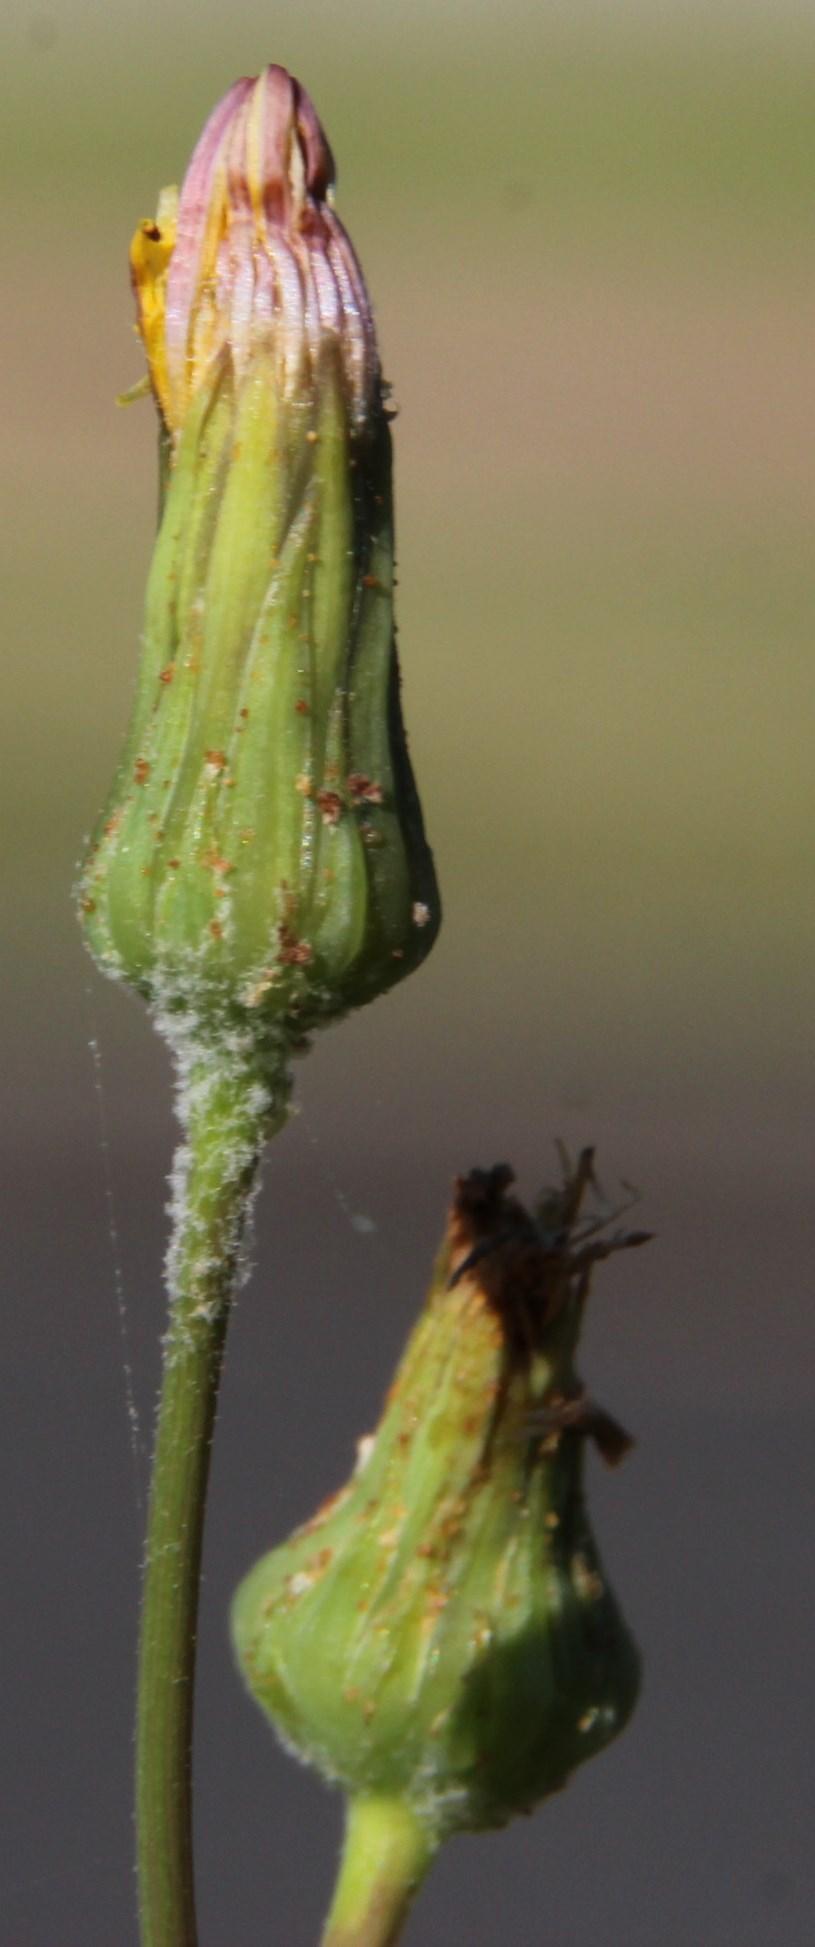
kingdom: Plantae
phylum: Tracheophyta
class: Magnoliopsida
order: Asterales
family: Asteraceae
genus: Sonchus
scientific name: Sonchus oleraceus
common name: Common sowthistle
